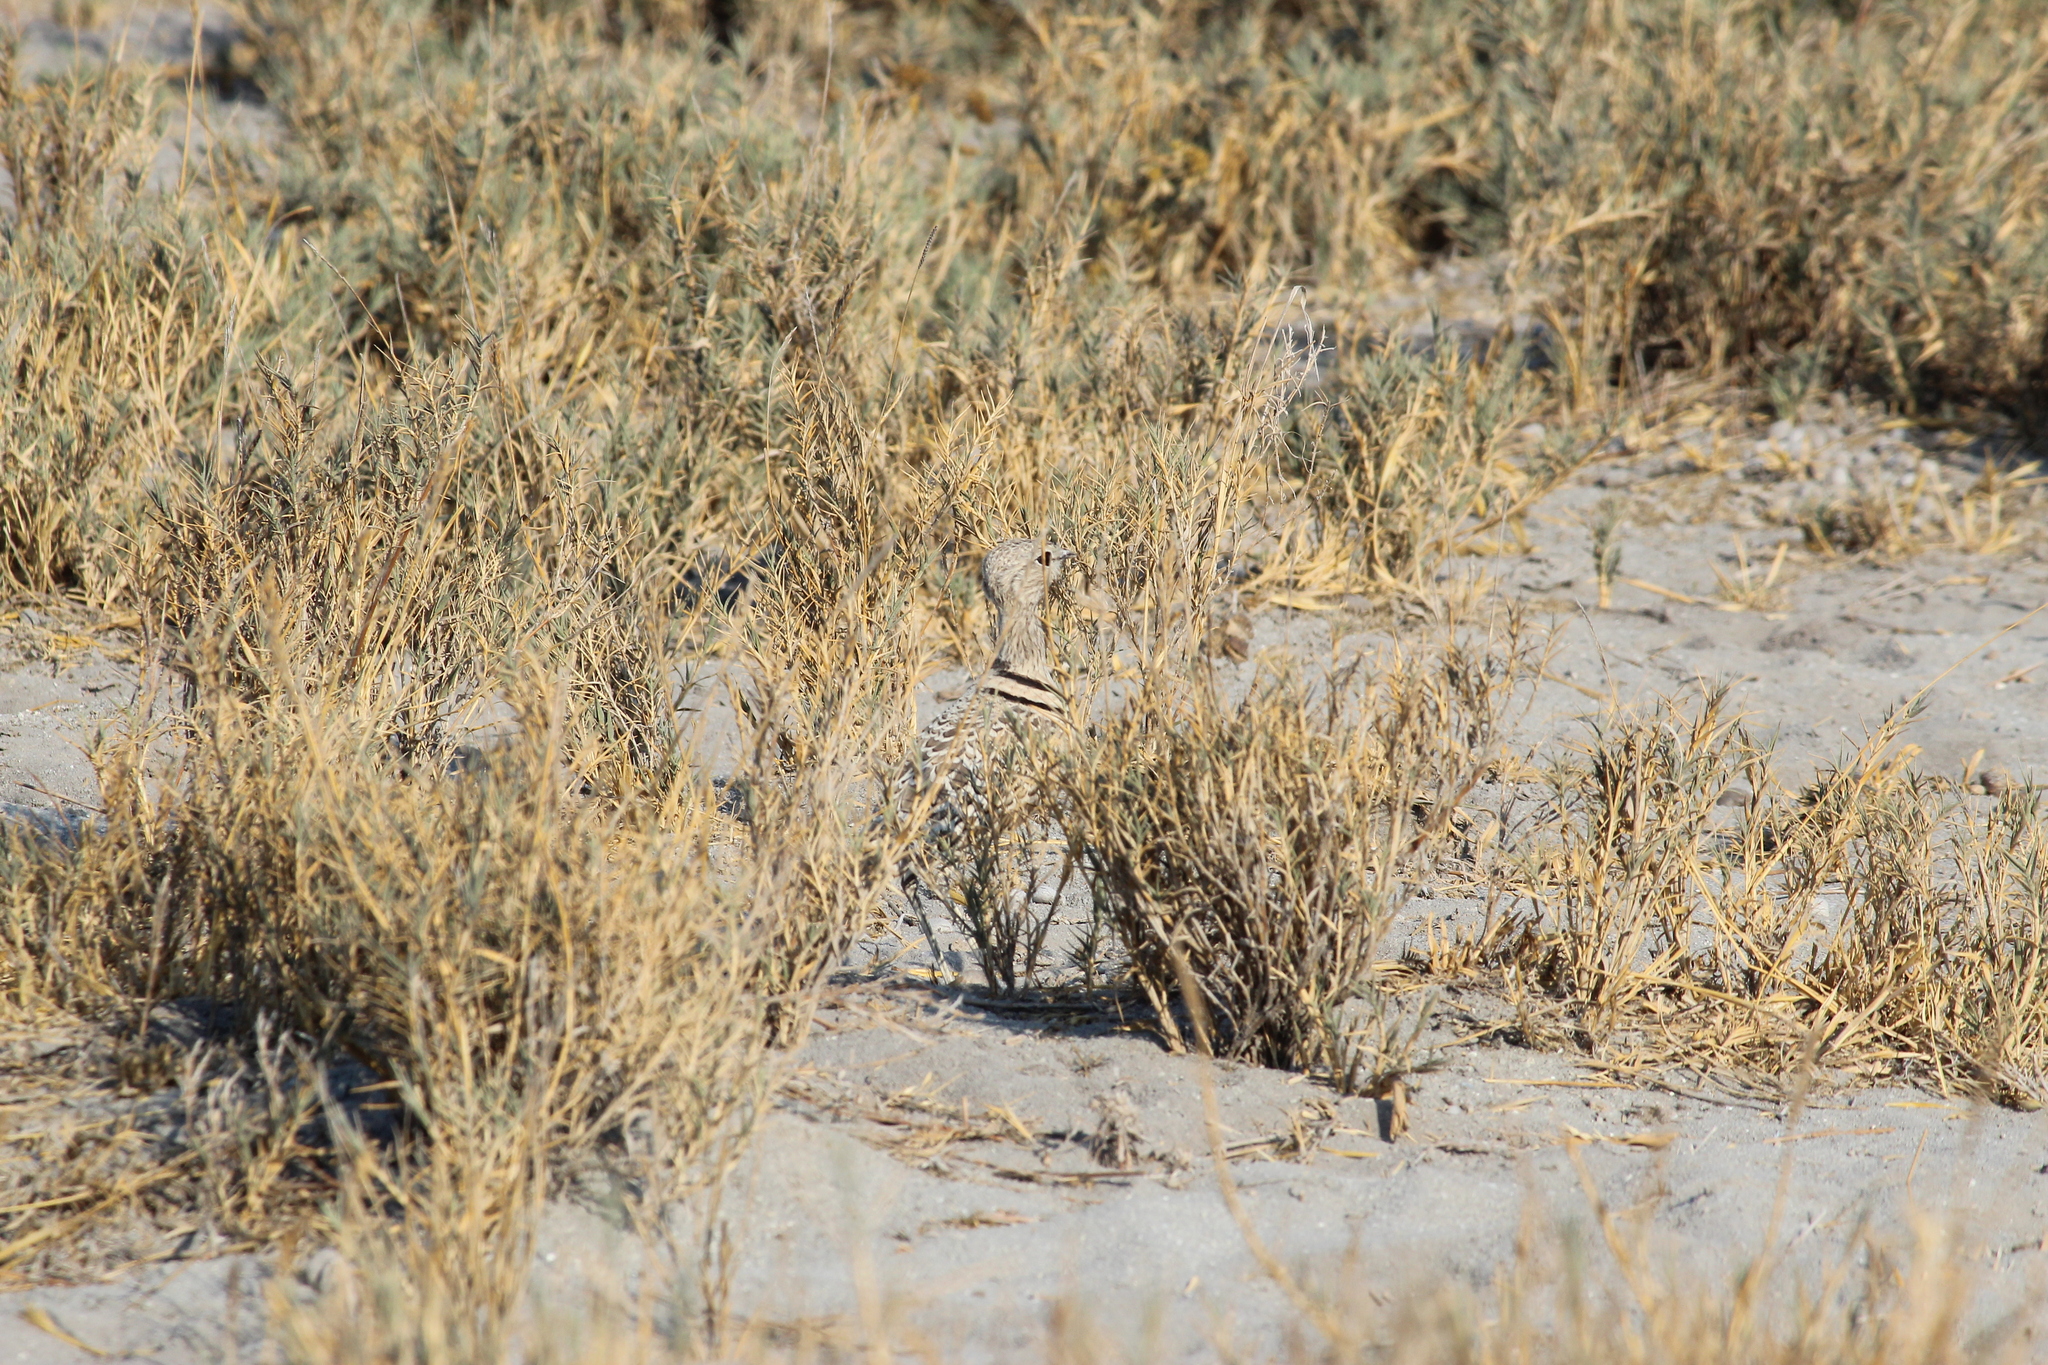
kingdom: Animalia
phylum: Chordata
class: Aves
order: Charadriiformes
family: Glareolidae
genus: Rhinoptilus
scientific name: Rhinoptilus africanus
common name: Double-banded courser
